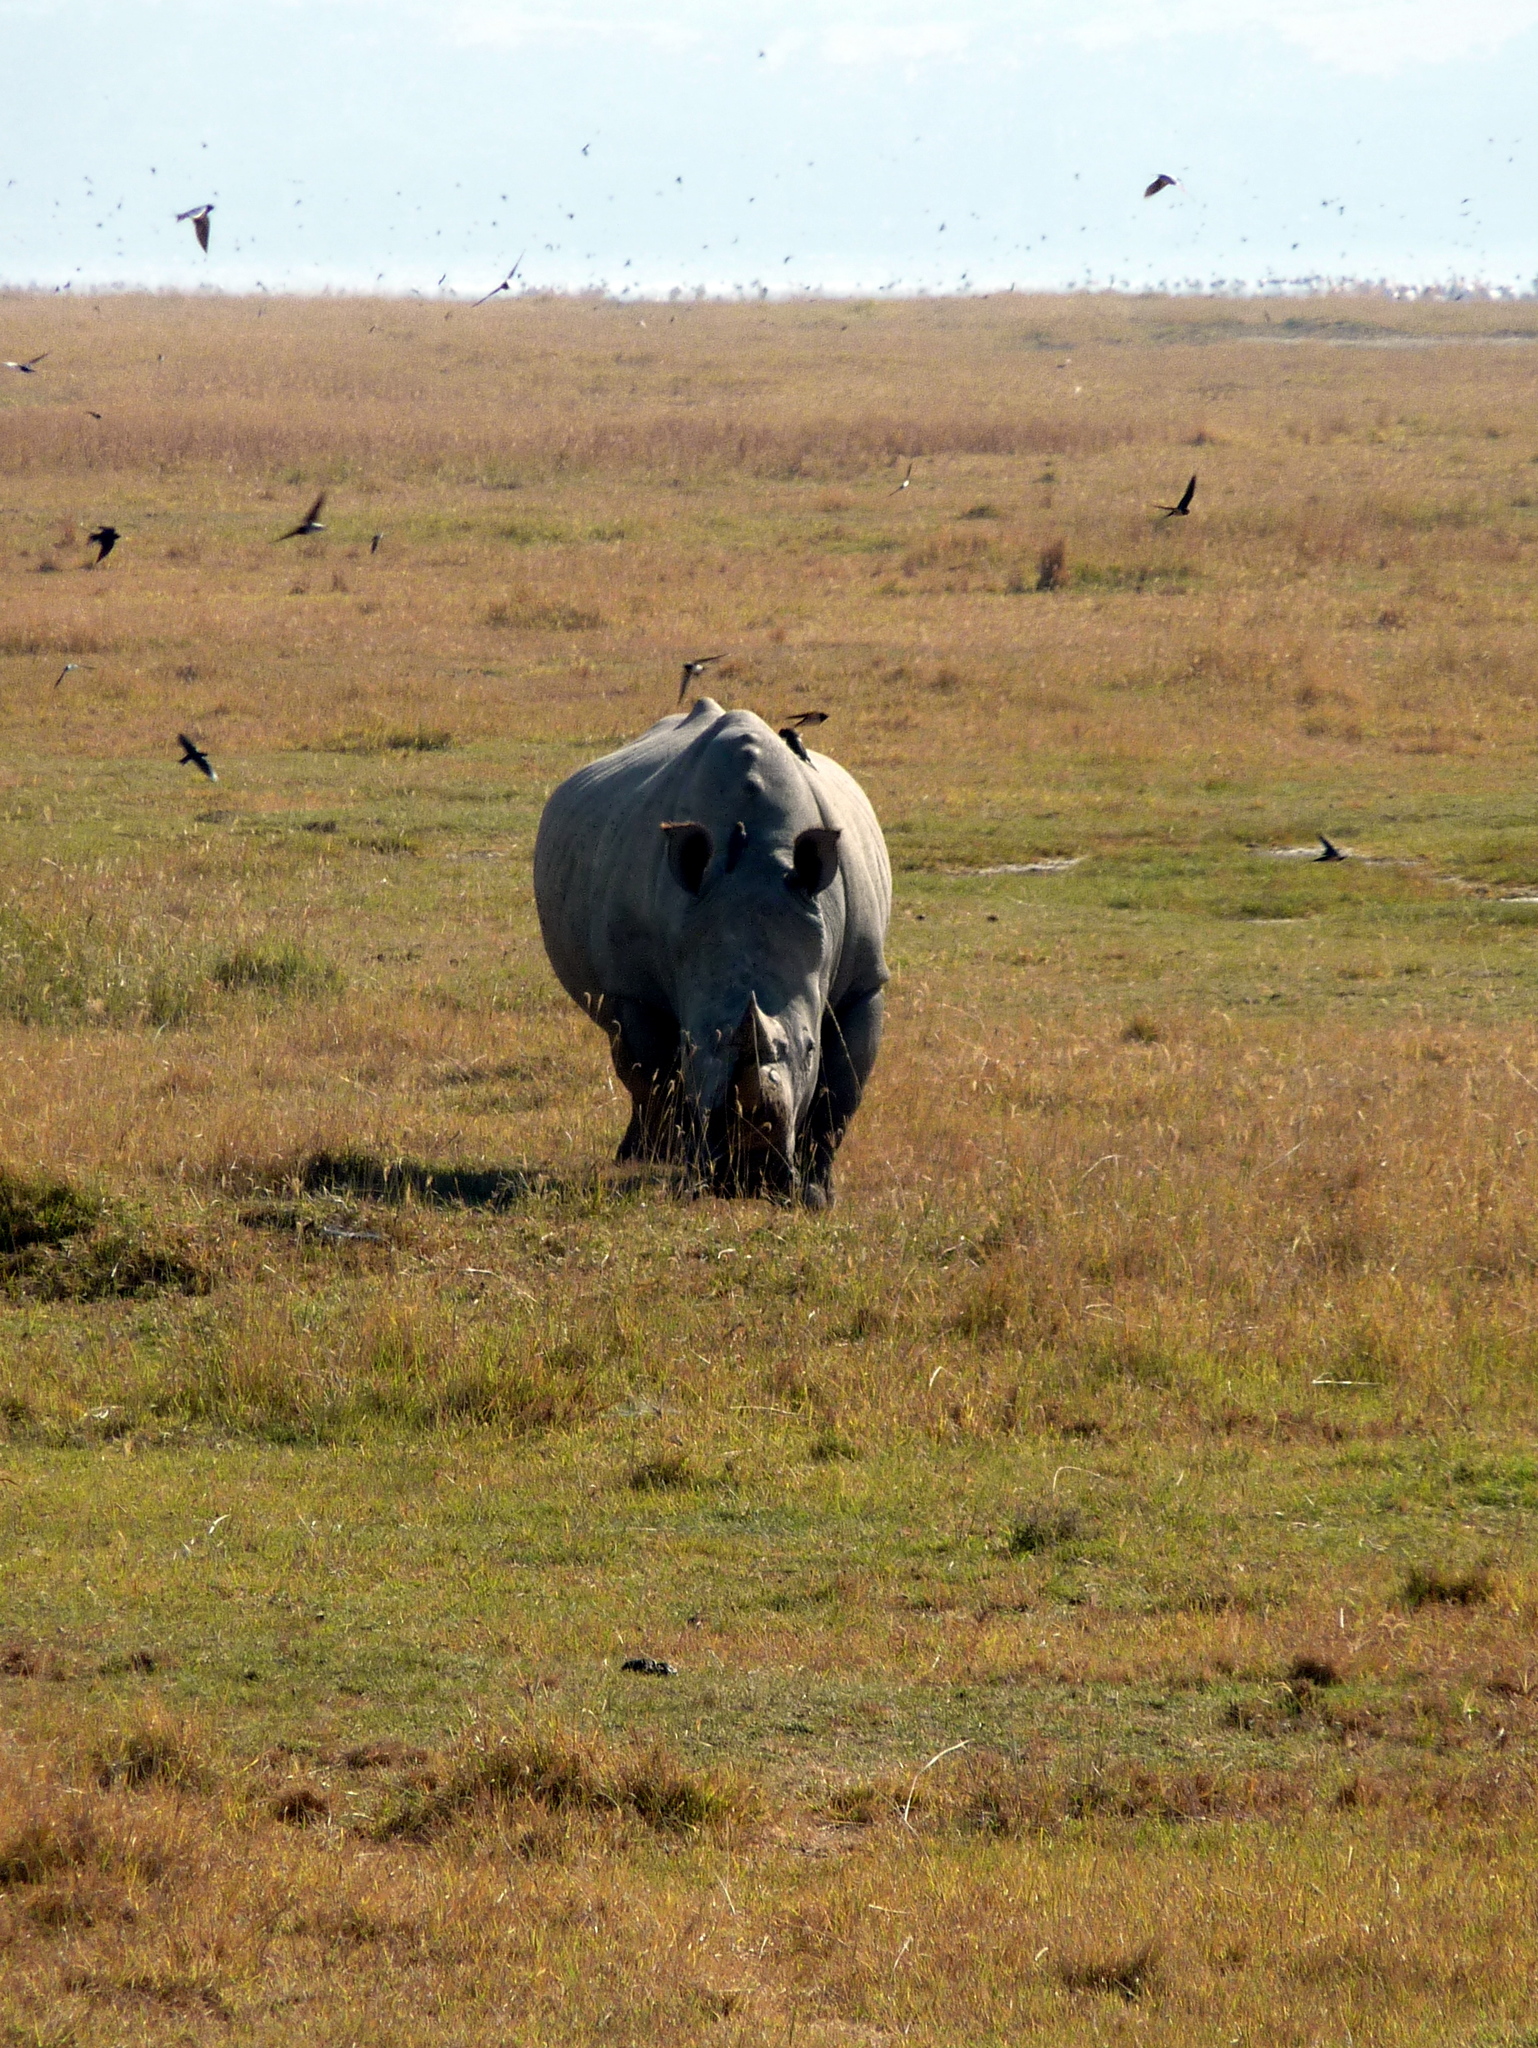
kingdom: Animalia
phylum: Chordata
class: Mammalia
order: Perissodactyla
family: Rhinocerotidae
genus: Ceratotherium
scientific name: Ceratotherium simum
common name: White rhinoceros
